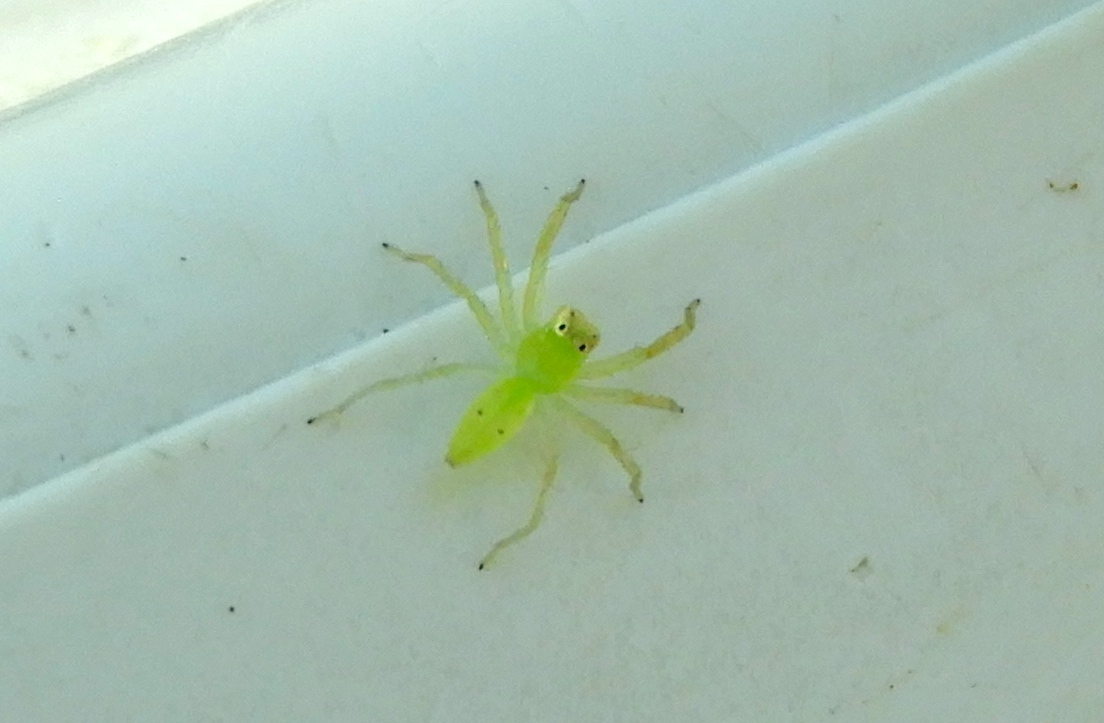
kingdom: Animalia
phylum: Arthropoda
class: Arachnida
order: Araneae
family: Salticidae
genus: Lyssomanes
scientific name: Lyssomanes
